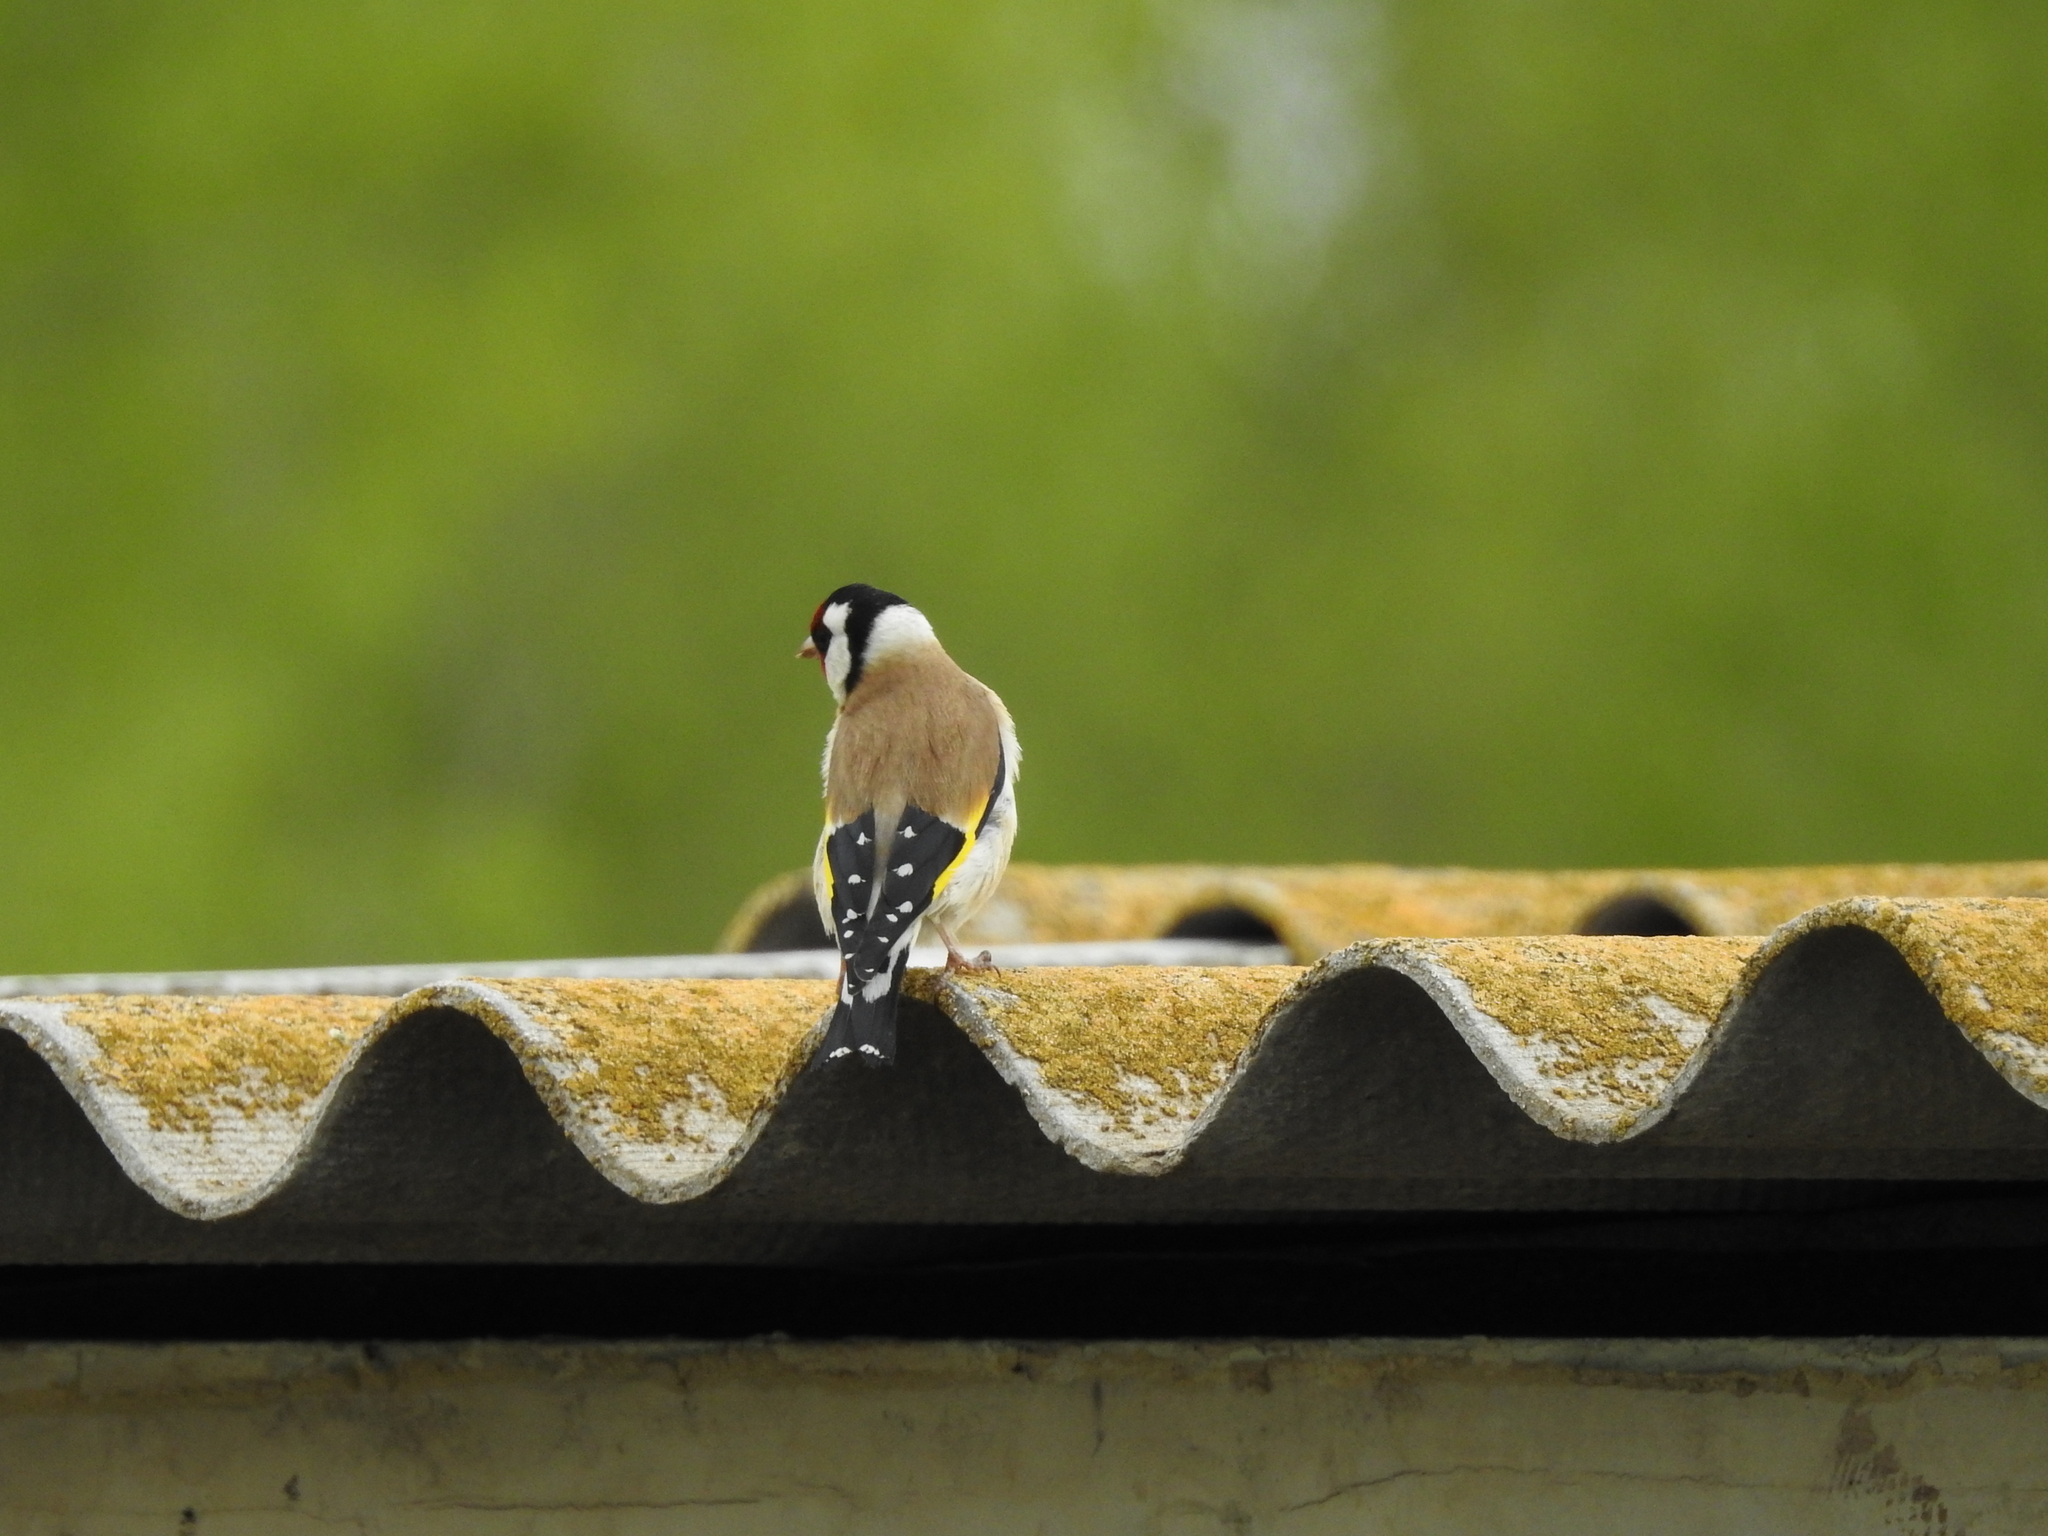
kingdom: Animalia
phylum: Chordata
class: Aves
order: Passeriformes
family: Fringillidae
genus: Carduelis
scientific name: Carduelis carduelis
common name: European goldfinch
